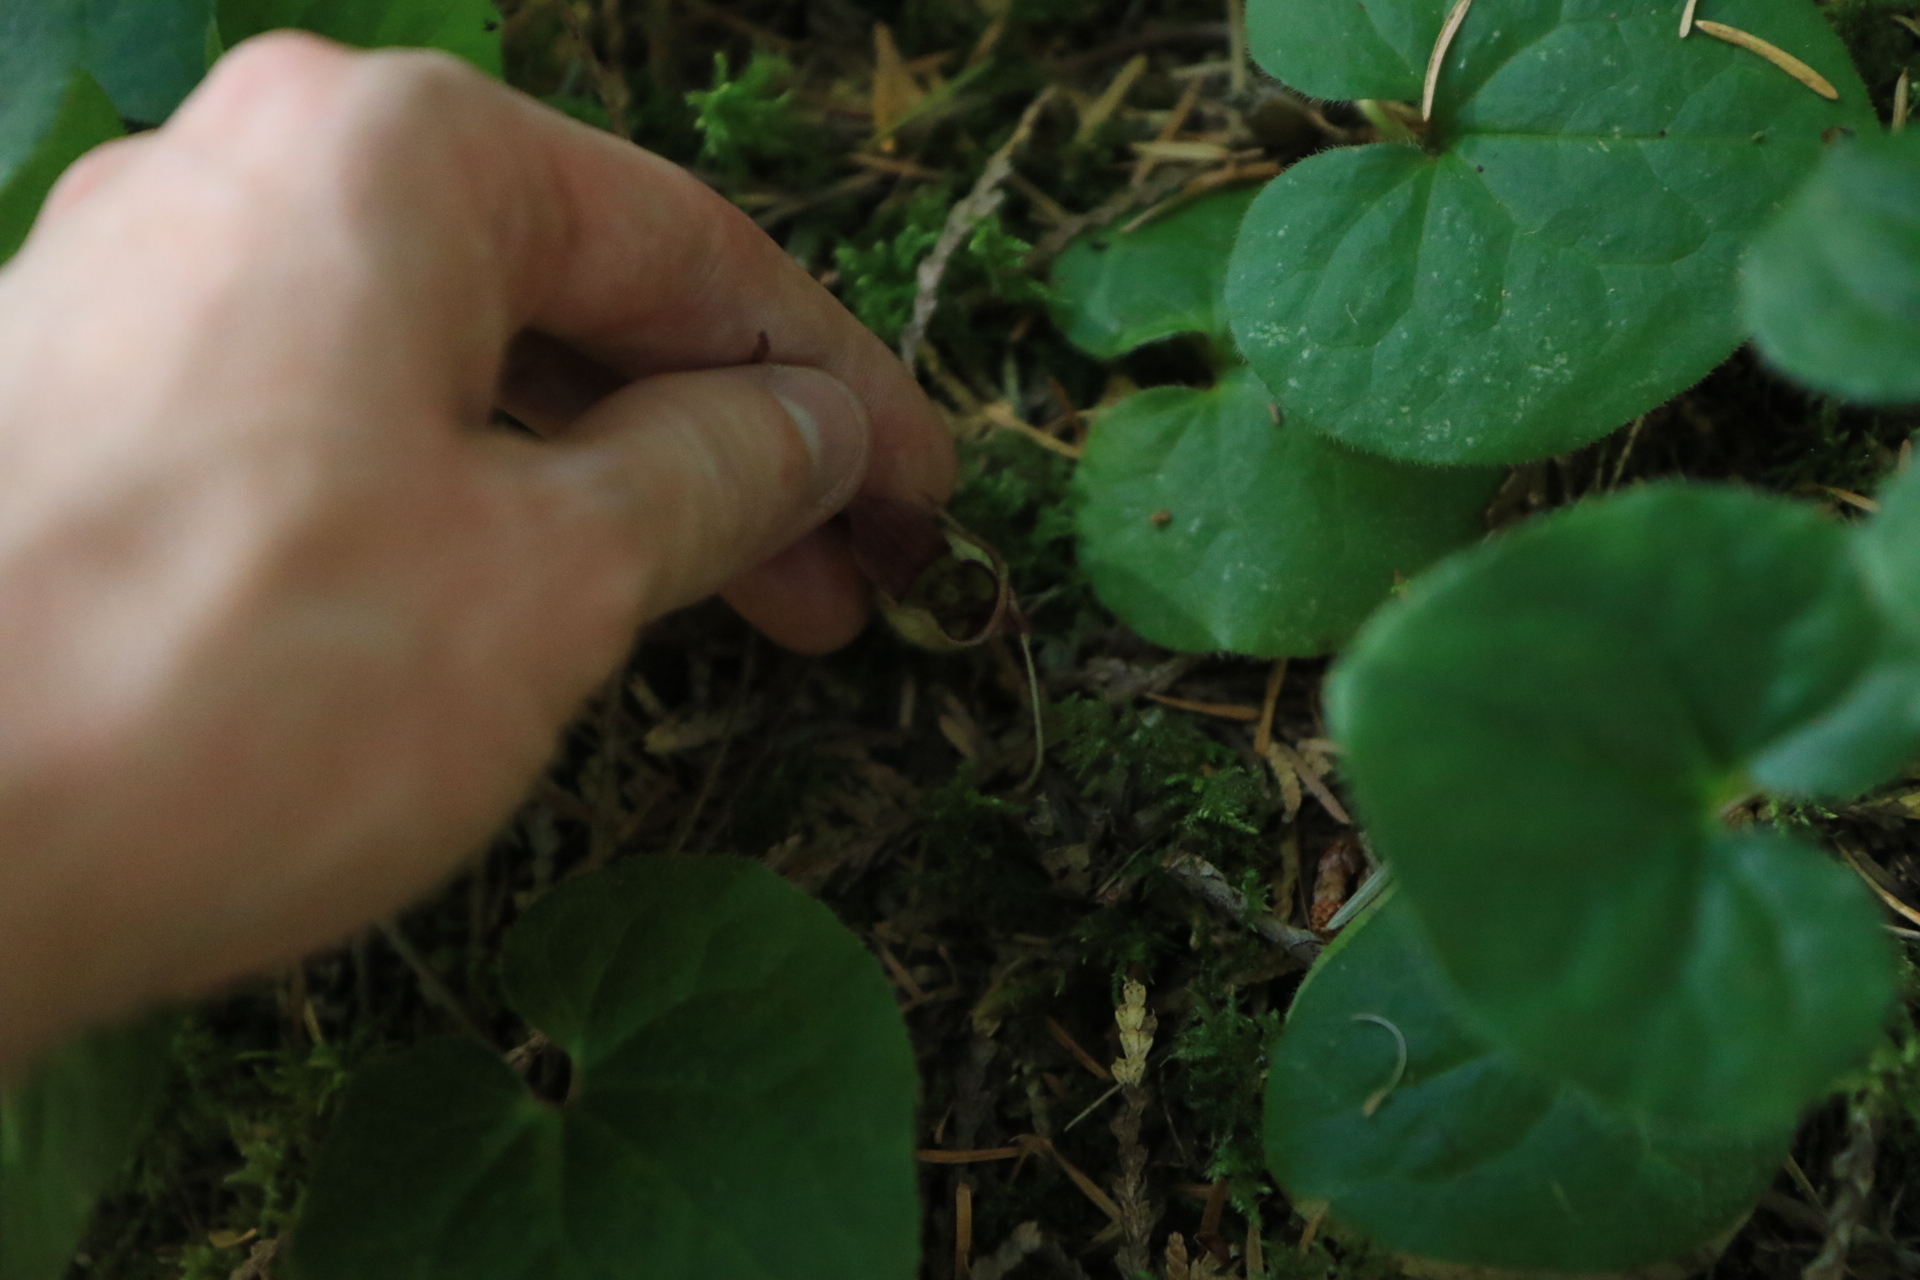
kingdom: Plantae
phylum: Tracheophyta
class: Magnoliopsida
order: Piperales
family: Aristolochiaceae
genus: Asarum
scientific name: Asarum caudatum
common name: Wild ginger
